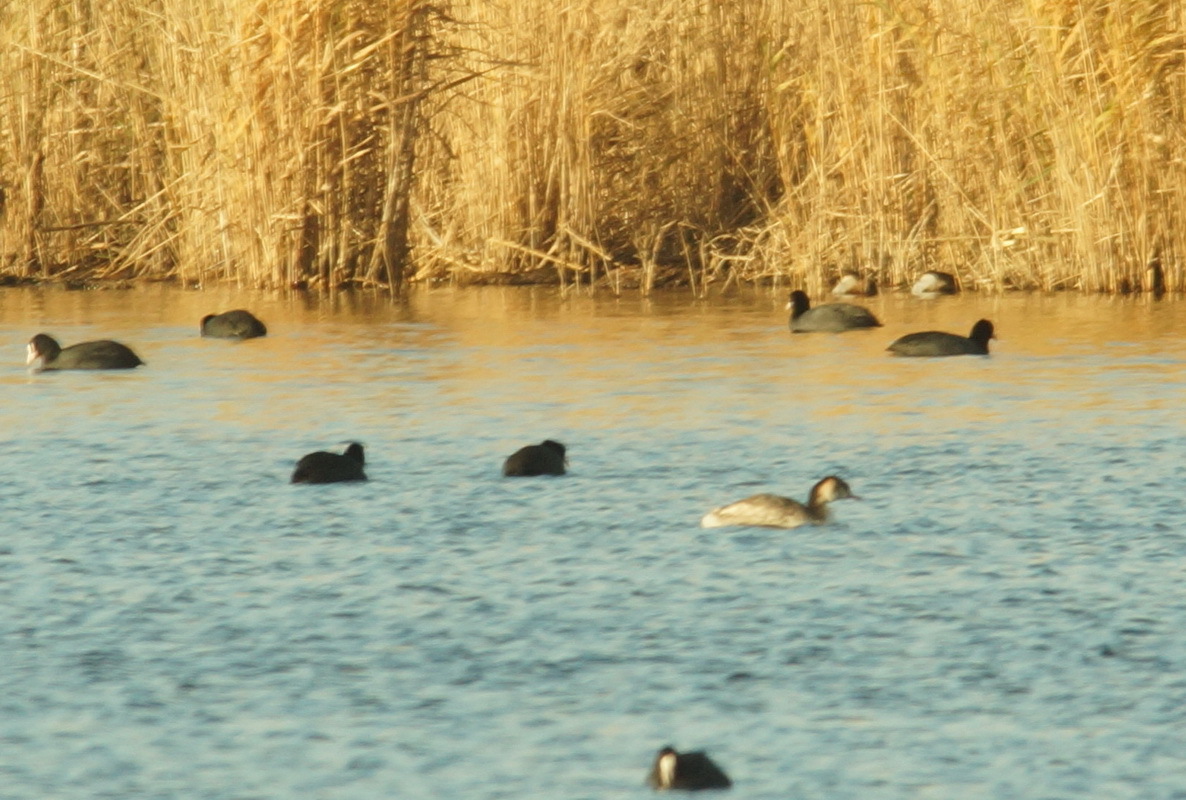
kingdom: Animalia
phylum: Chordata
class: Aves
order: Podicipediformes
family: Podicipedidae
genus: Podiceps
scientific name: Podiceps cristatus
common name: Great crested grebe
